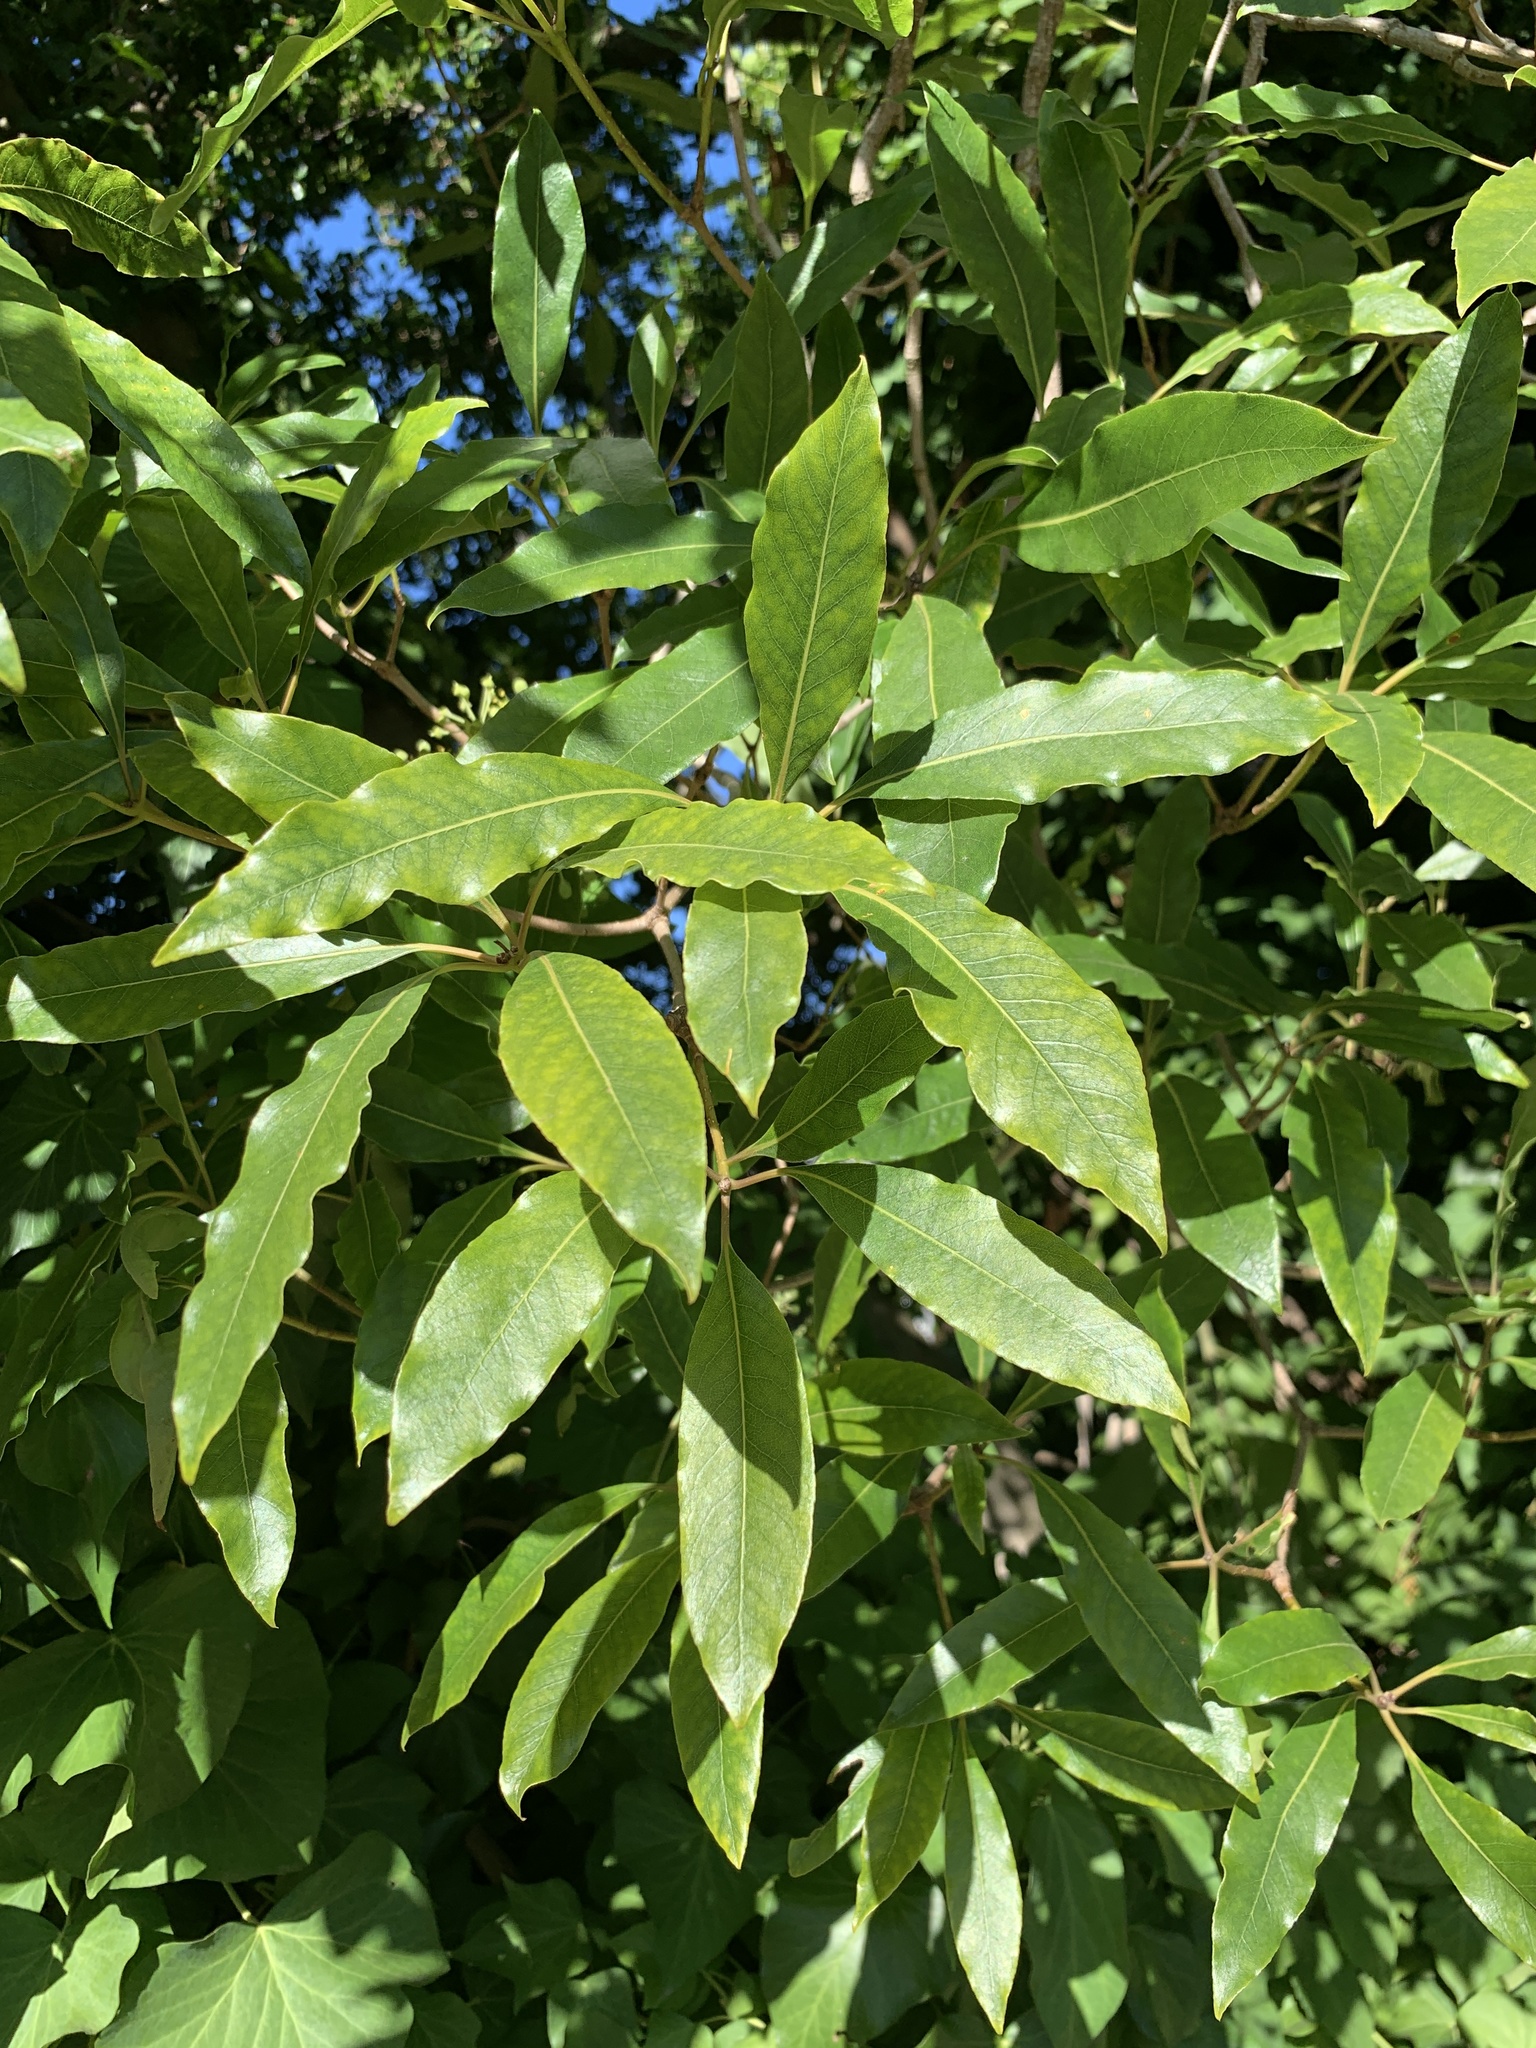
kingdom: Plantae
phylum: Tracheophyta
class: Magnoliopsida
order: Apiales
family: Pittosporaceae
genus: Pittosporum
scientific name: Pittosporum undulatum
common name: Australian cheesewood
